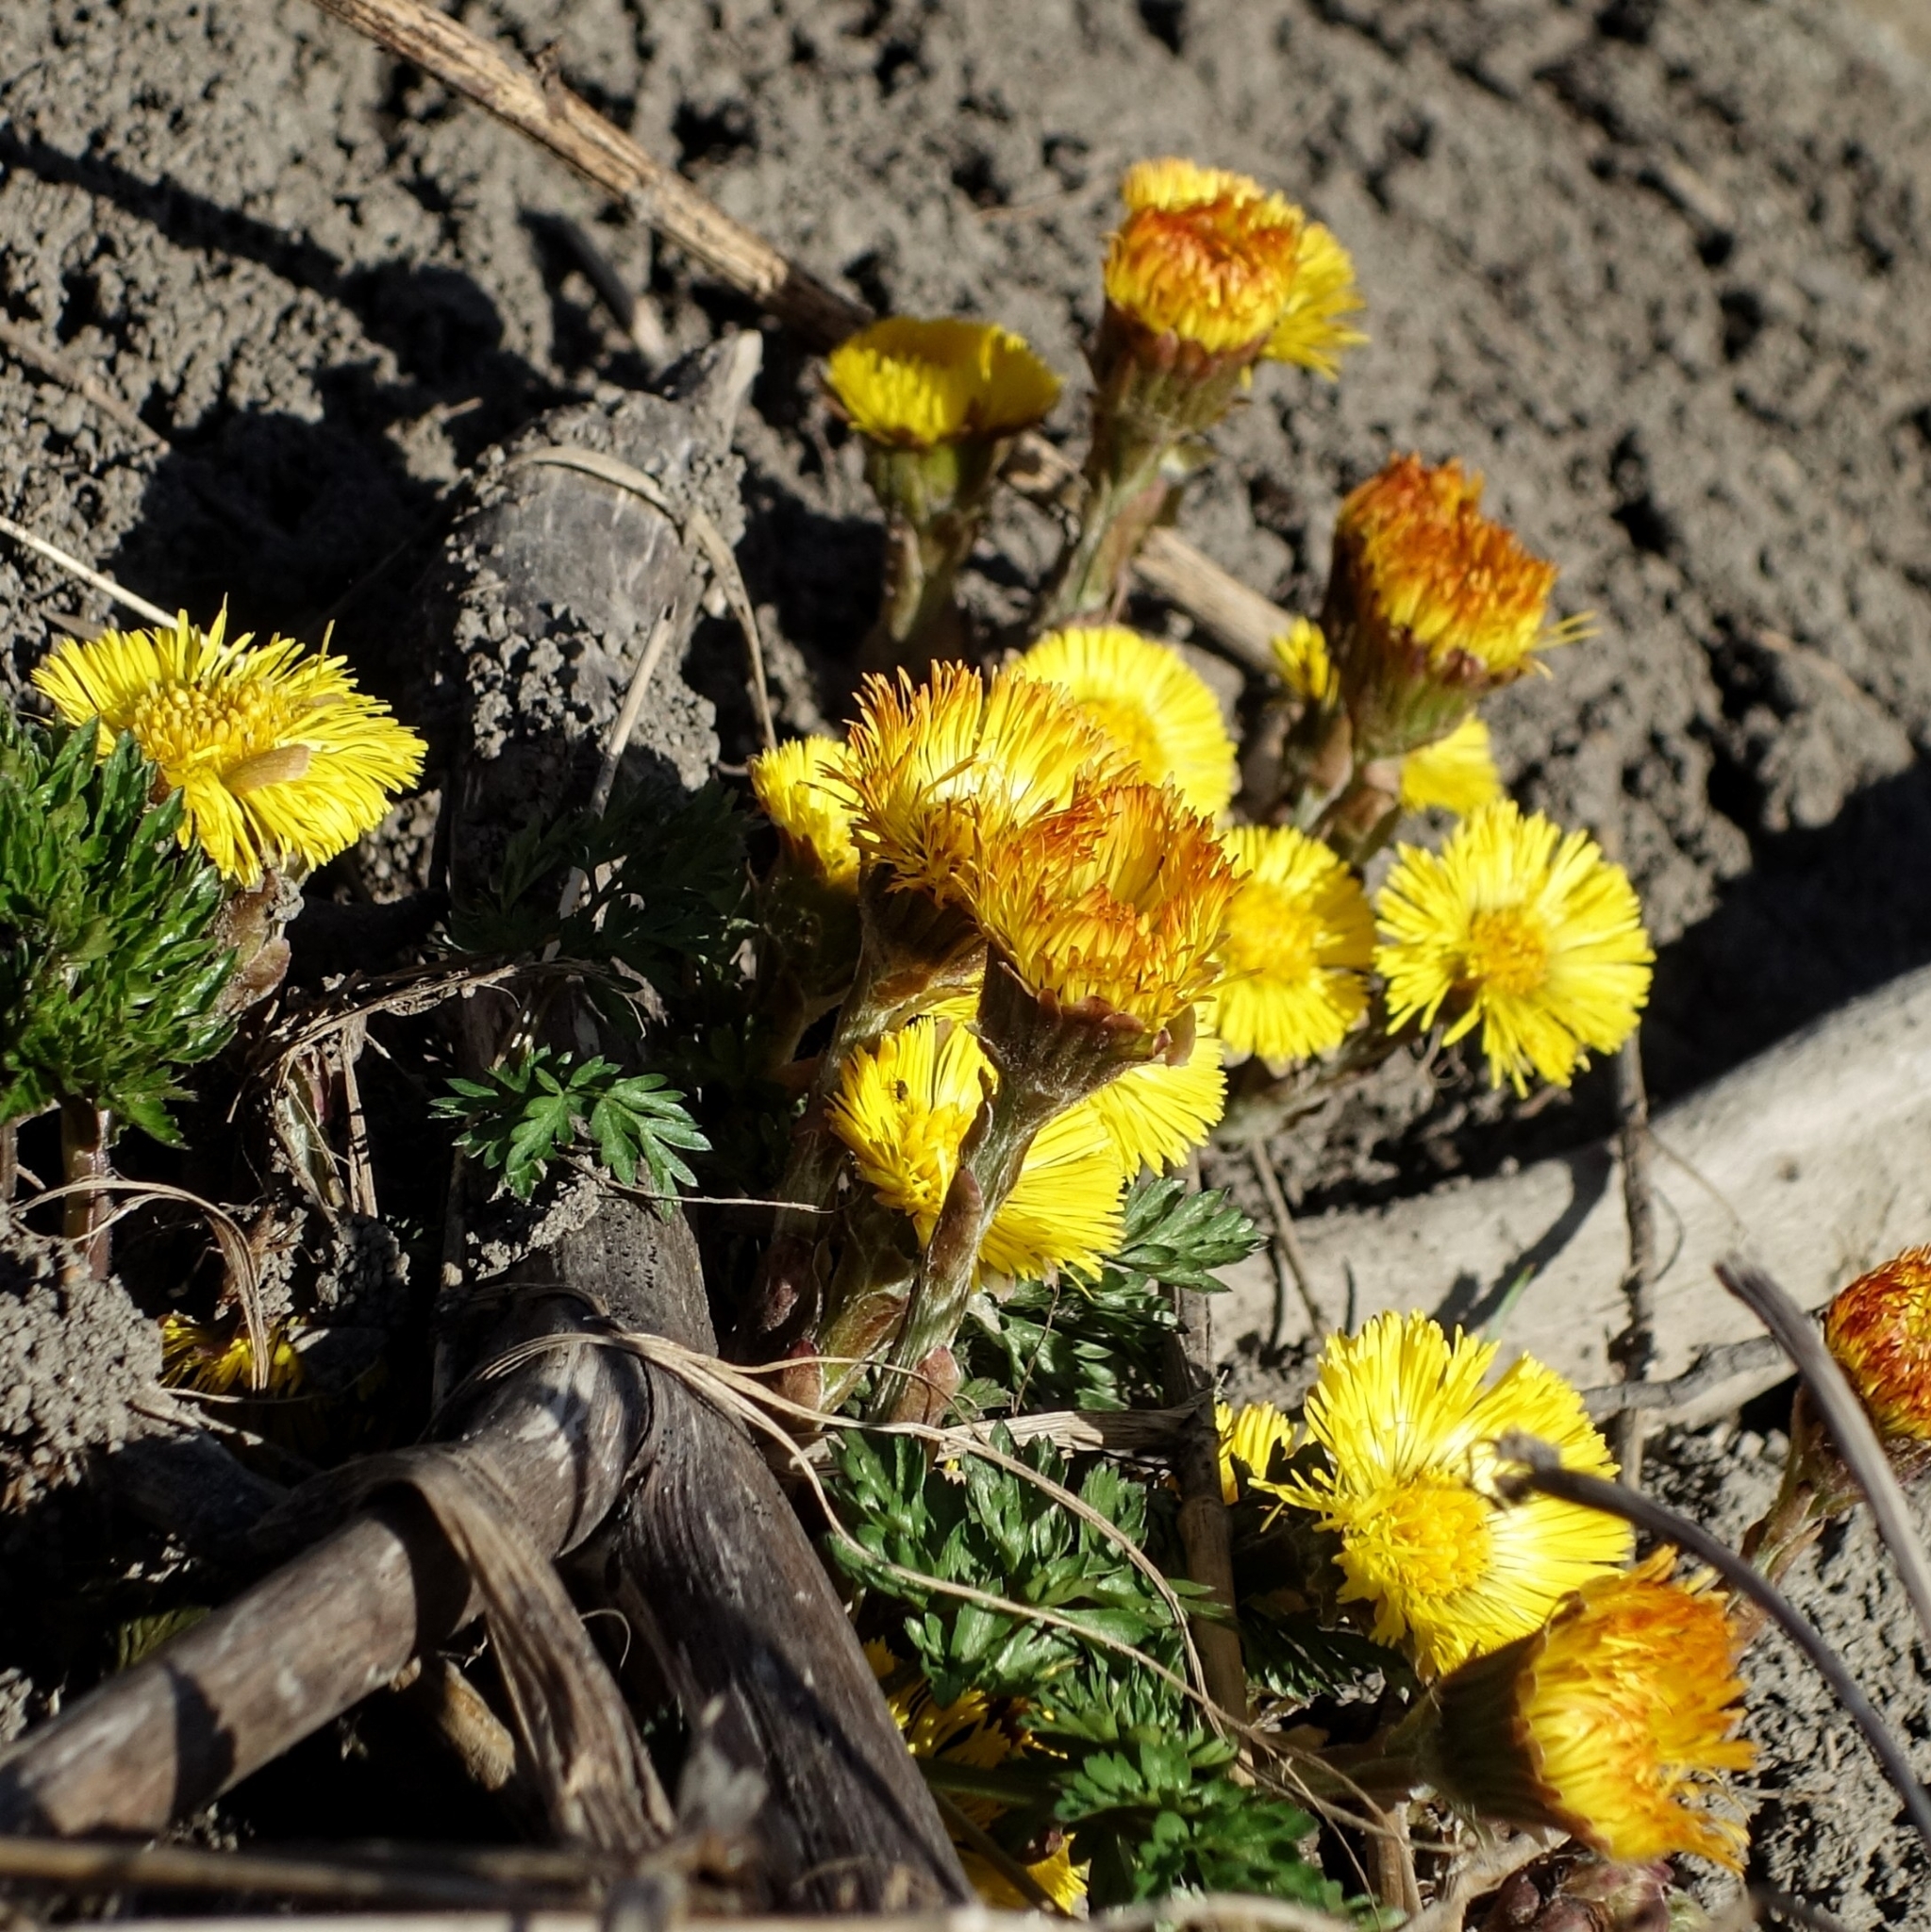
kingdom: Plantae
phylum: Tracheophyta
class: Magnoliopsida
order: Asterales
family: Asteraceae
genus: Tussilago
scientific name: Tussilago farfara
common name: Coltsfoot
